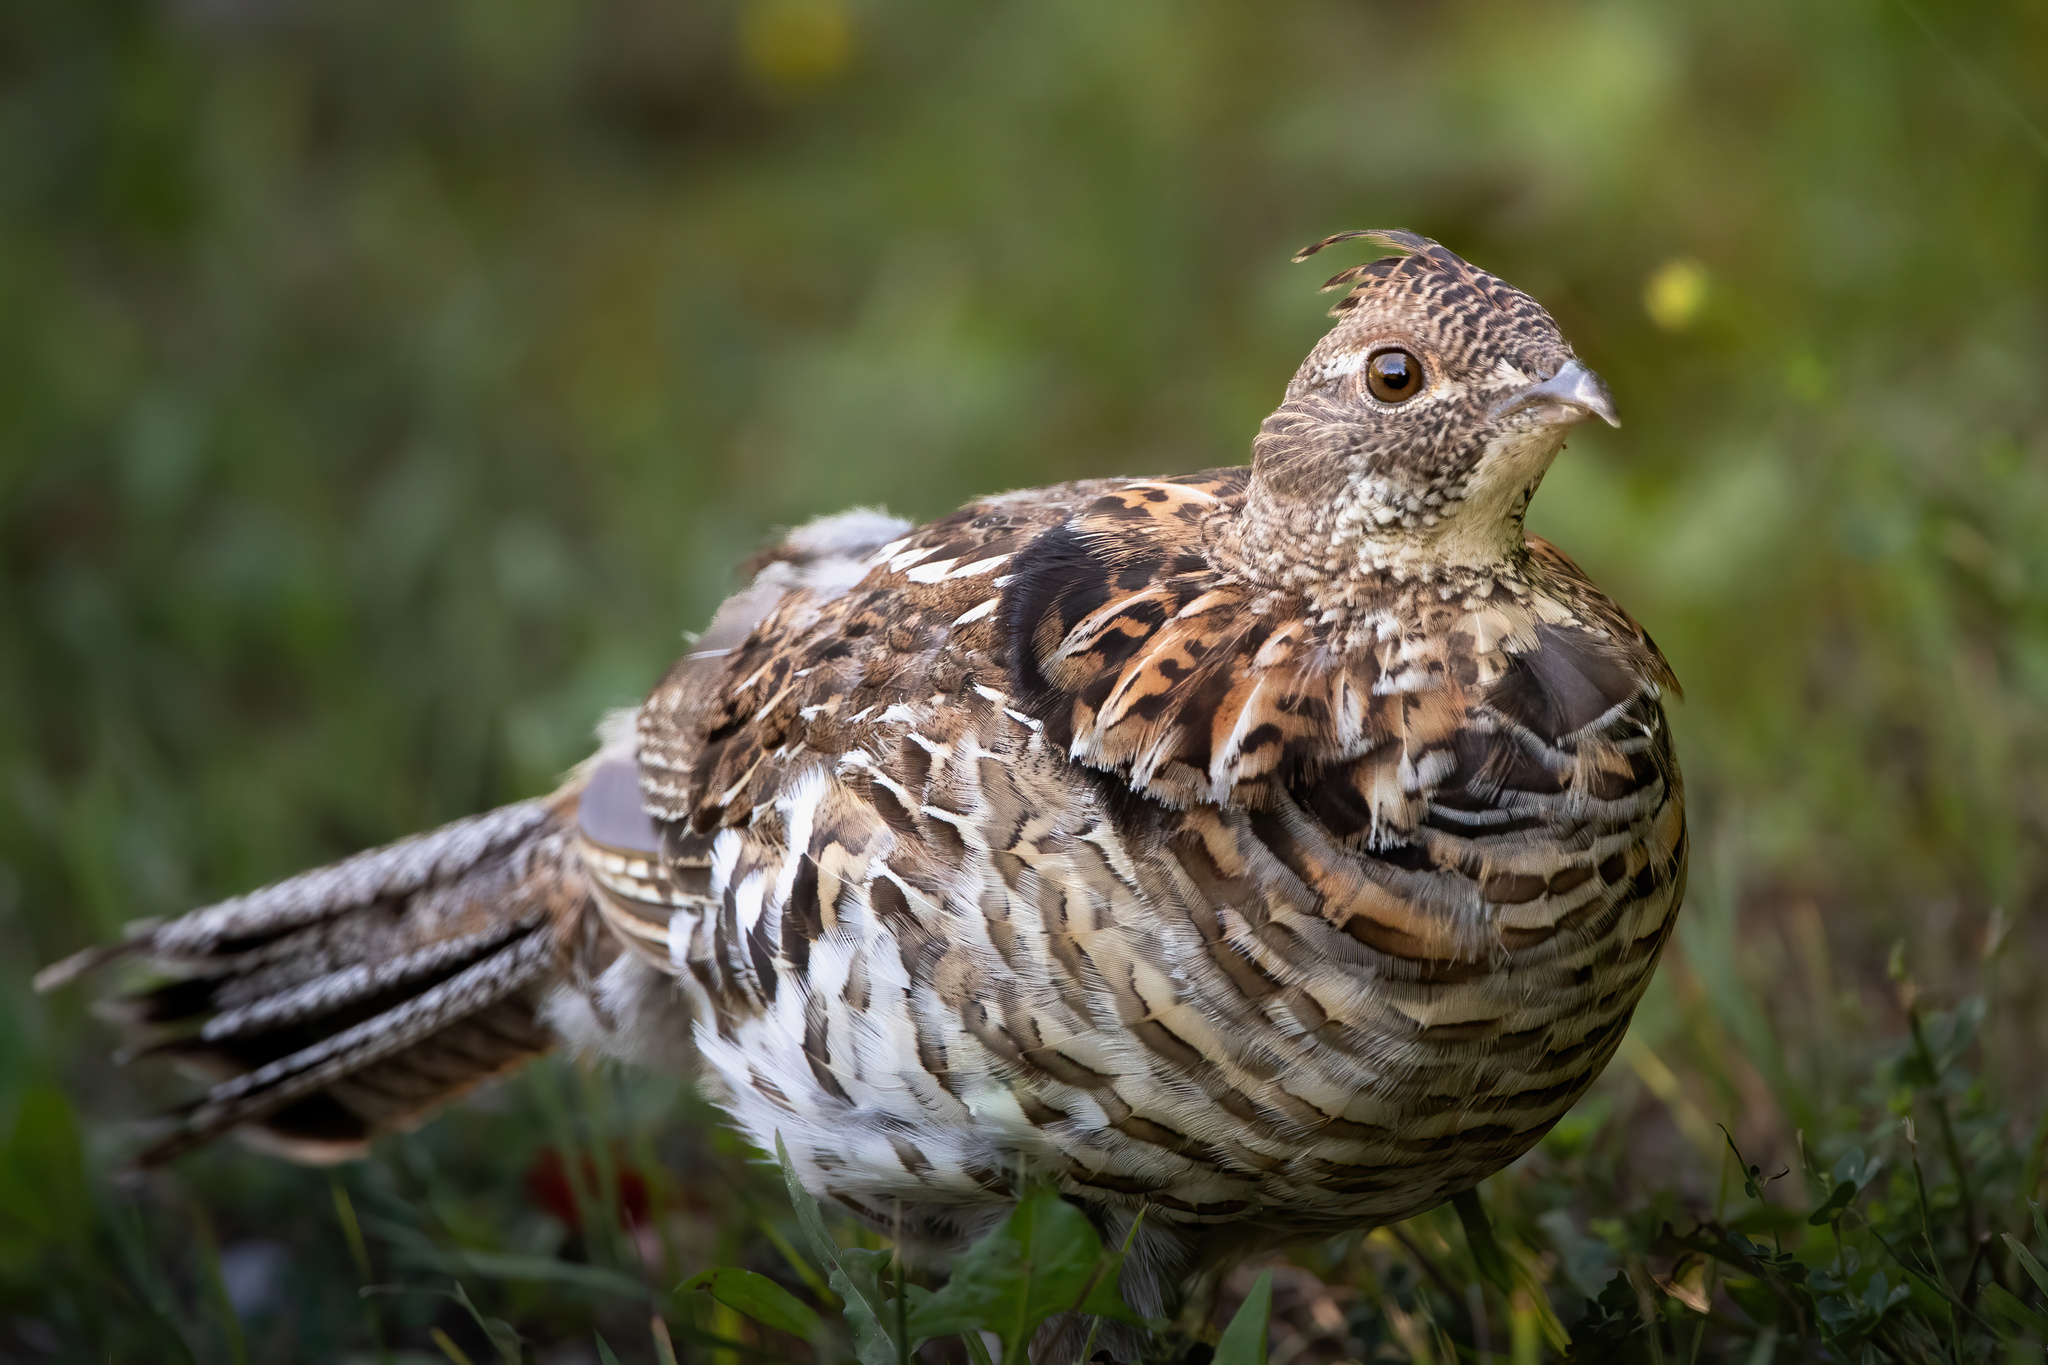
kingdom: Animalia
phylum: Chordata
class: Aves
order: Galliformes
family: Phasianidae
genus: Bonasa
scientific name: Bonasa umbellus
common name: Ruffed grouse
